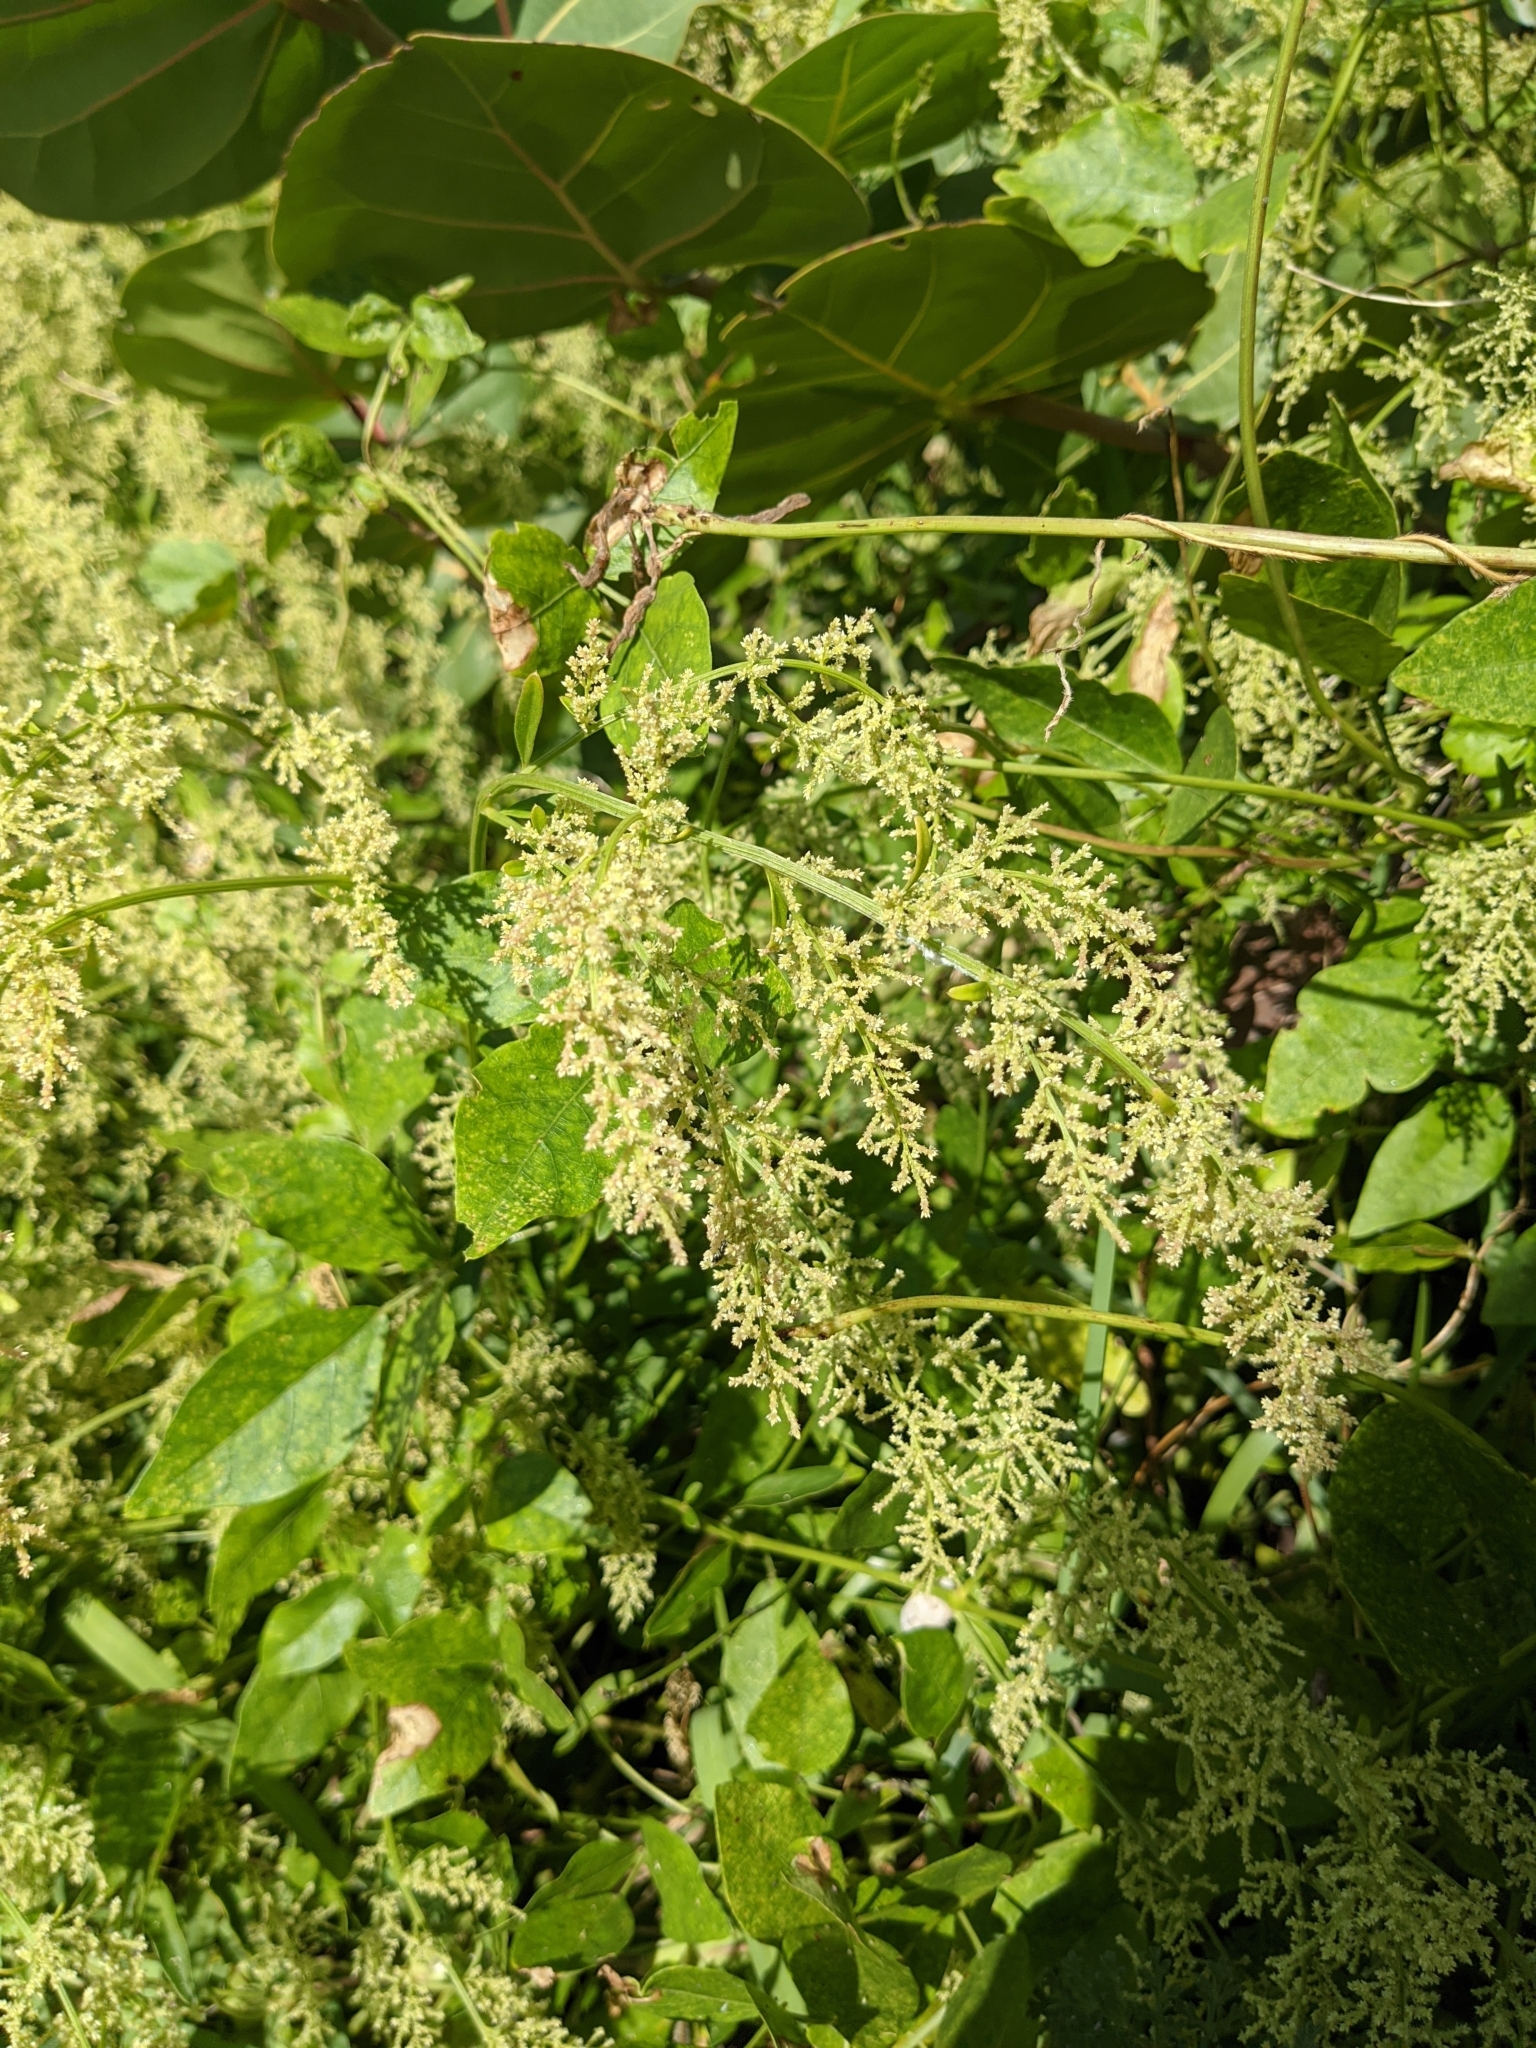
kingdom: Plantae
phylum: Tracheophyta
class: Magnoliopsida
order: Caryophyllales
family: Amaranthaceae
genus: Iresine
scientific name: Iresine diffusa
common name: Juba's-bush
